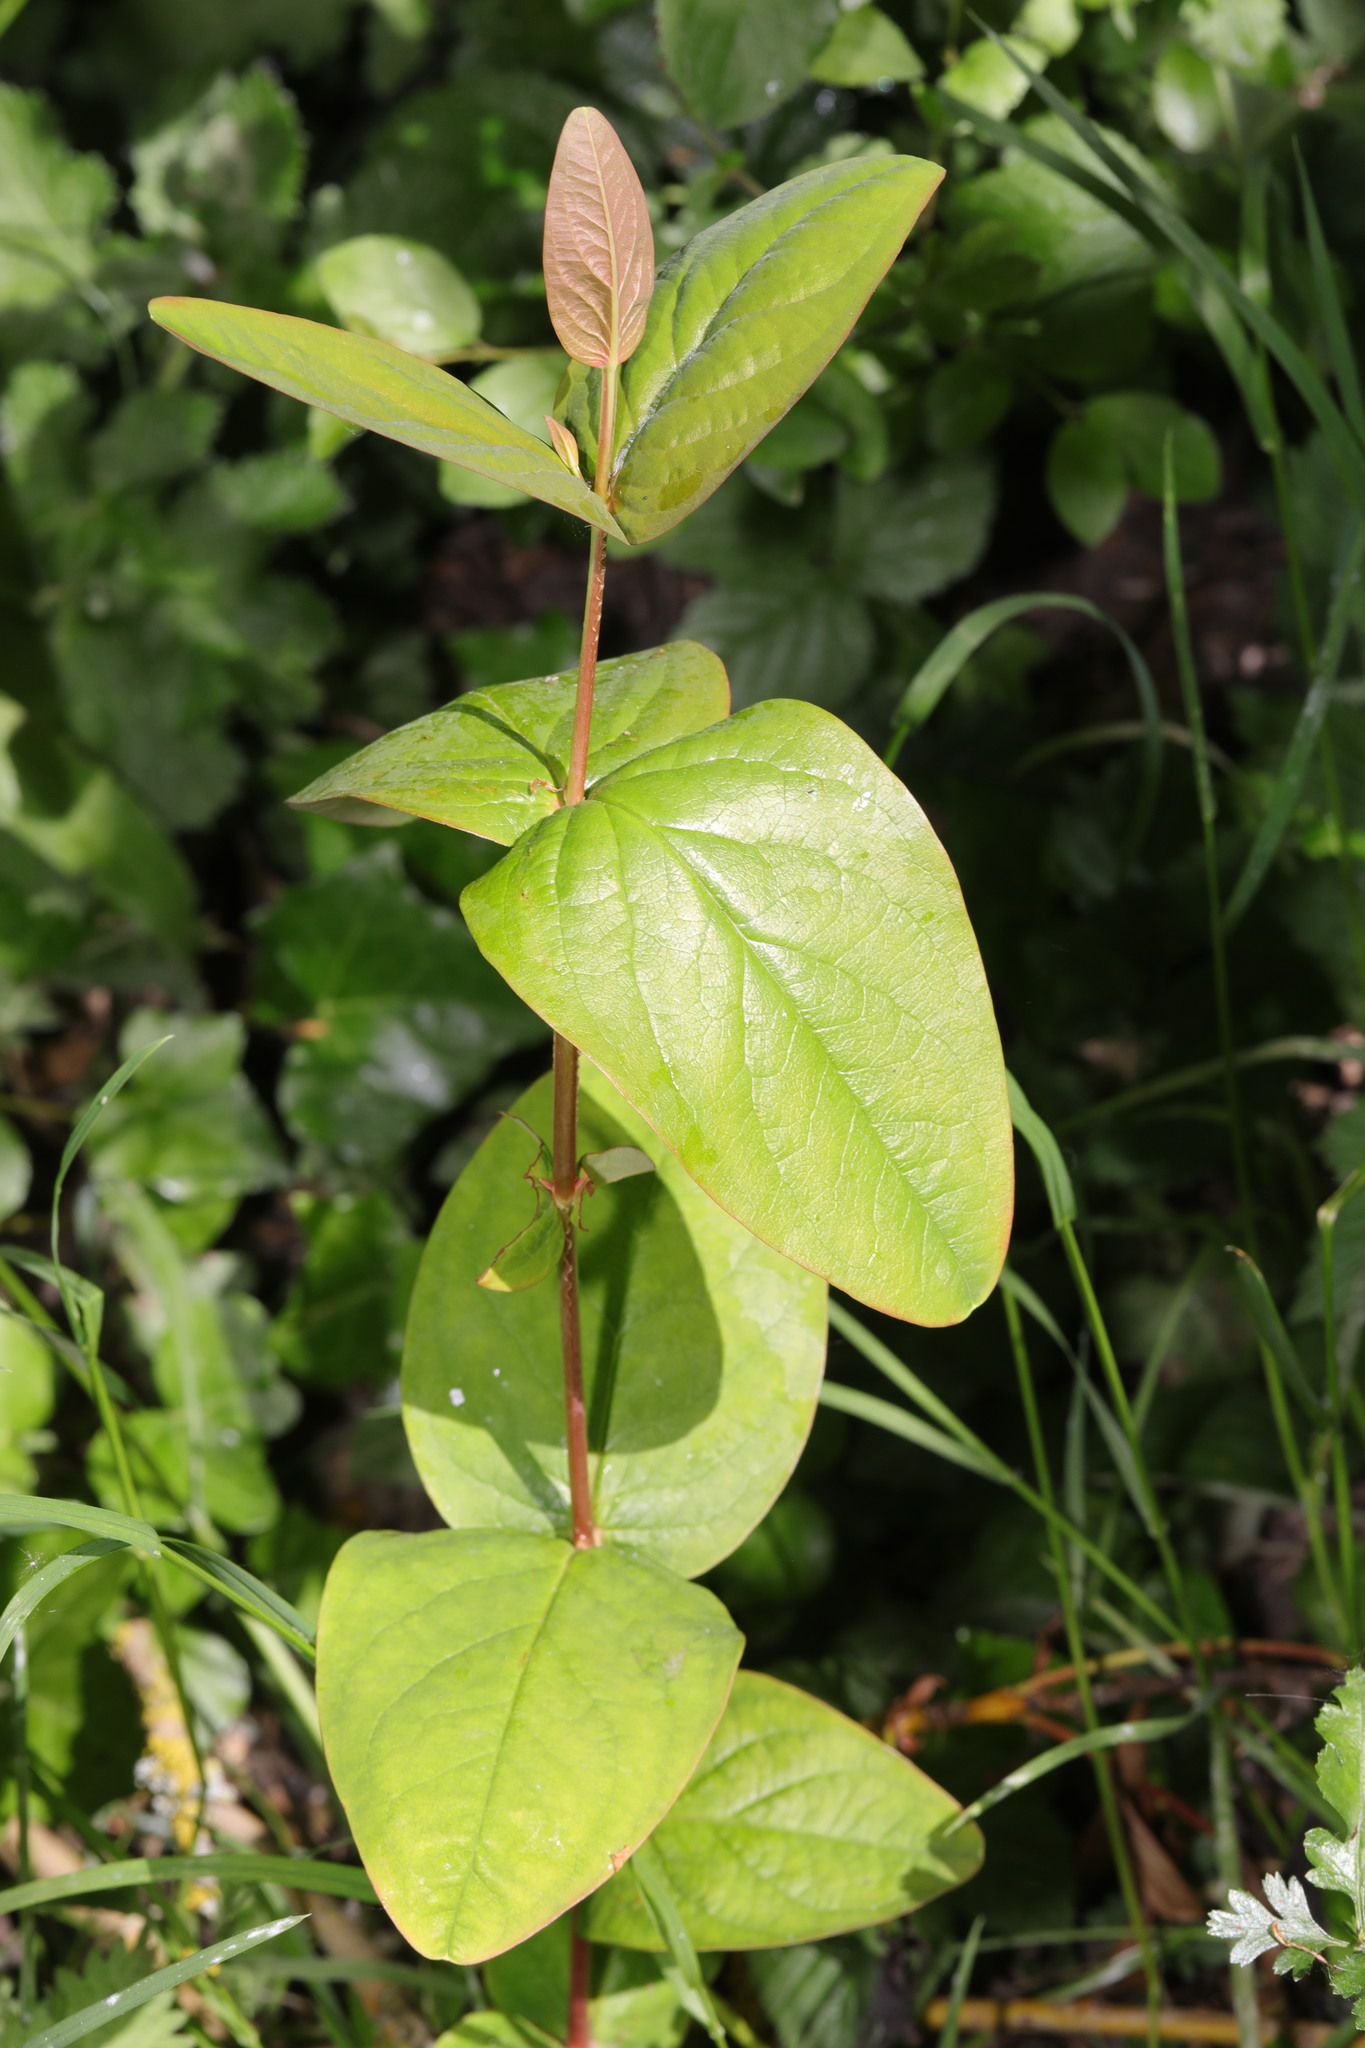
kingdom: Plantae
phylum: Tracheophyta
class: Magnoliopsida
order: Malpighiales
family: Hypericaceae
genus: Hypericum
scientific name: Hypericum androsaemum
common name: Sweet-amber
